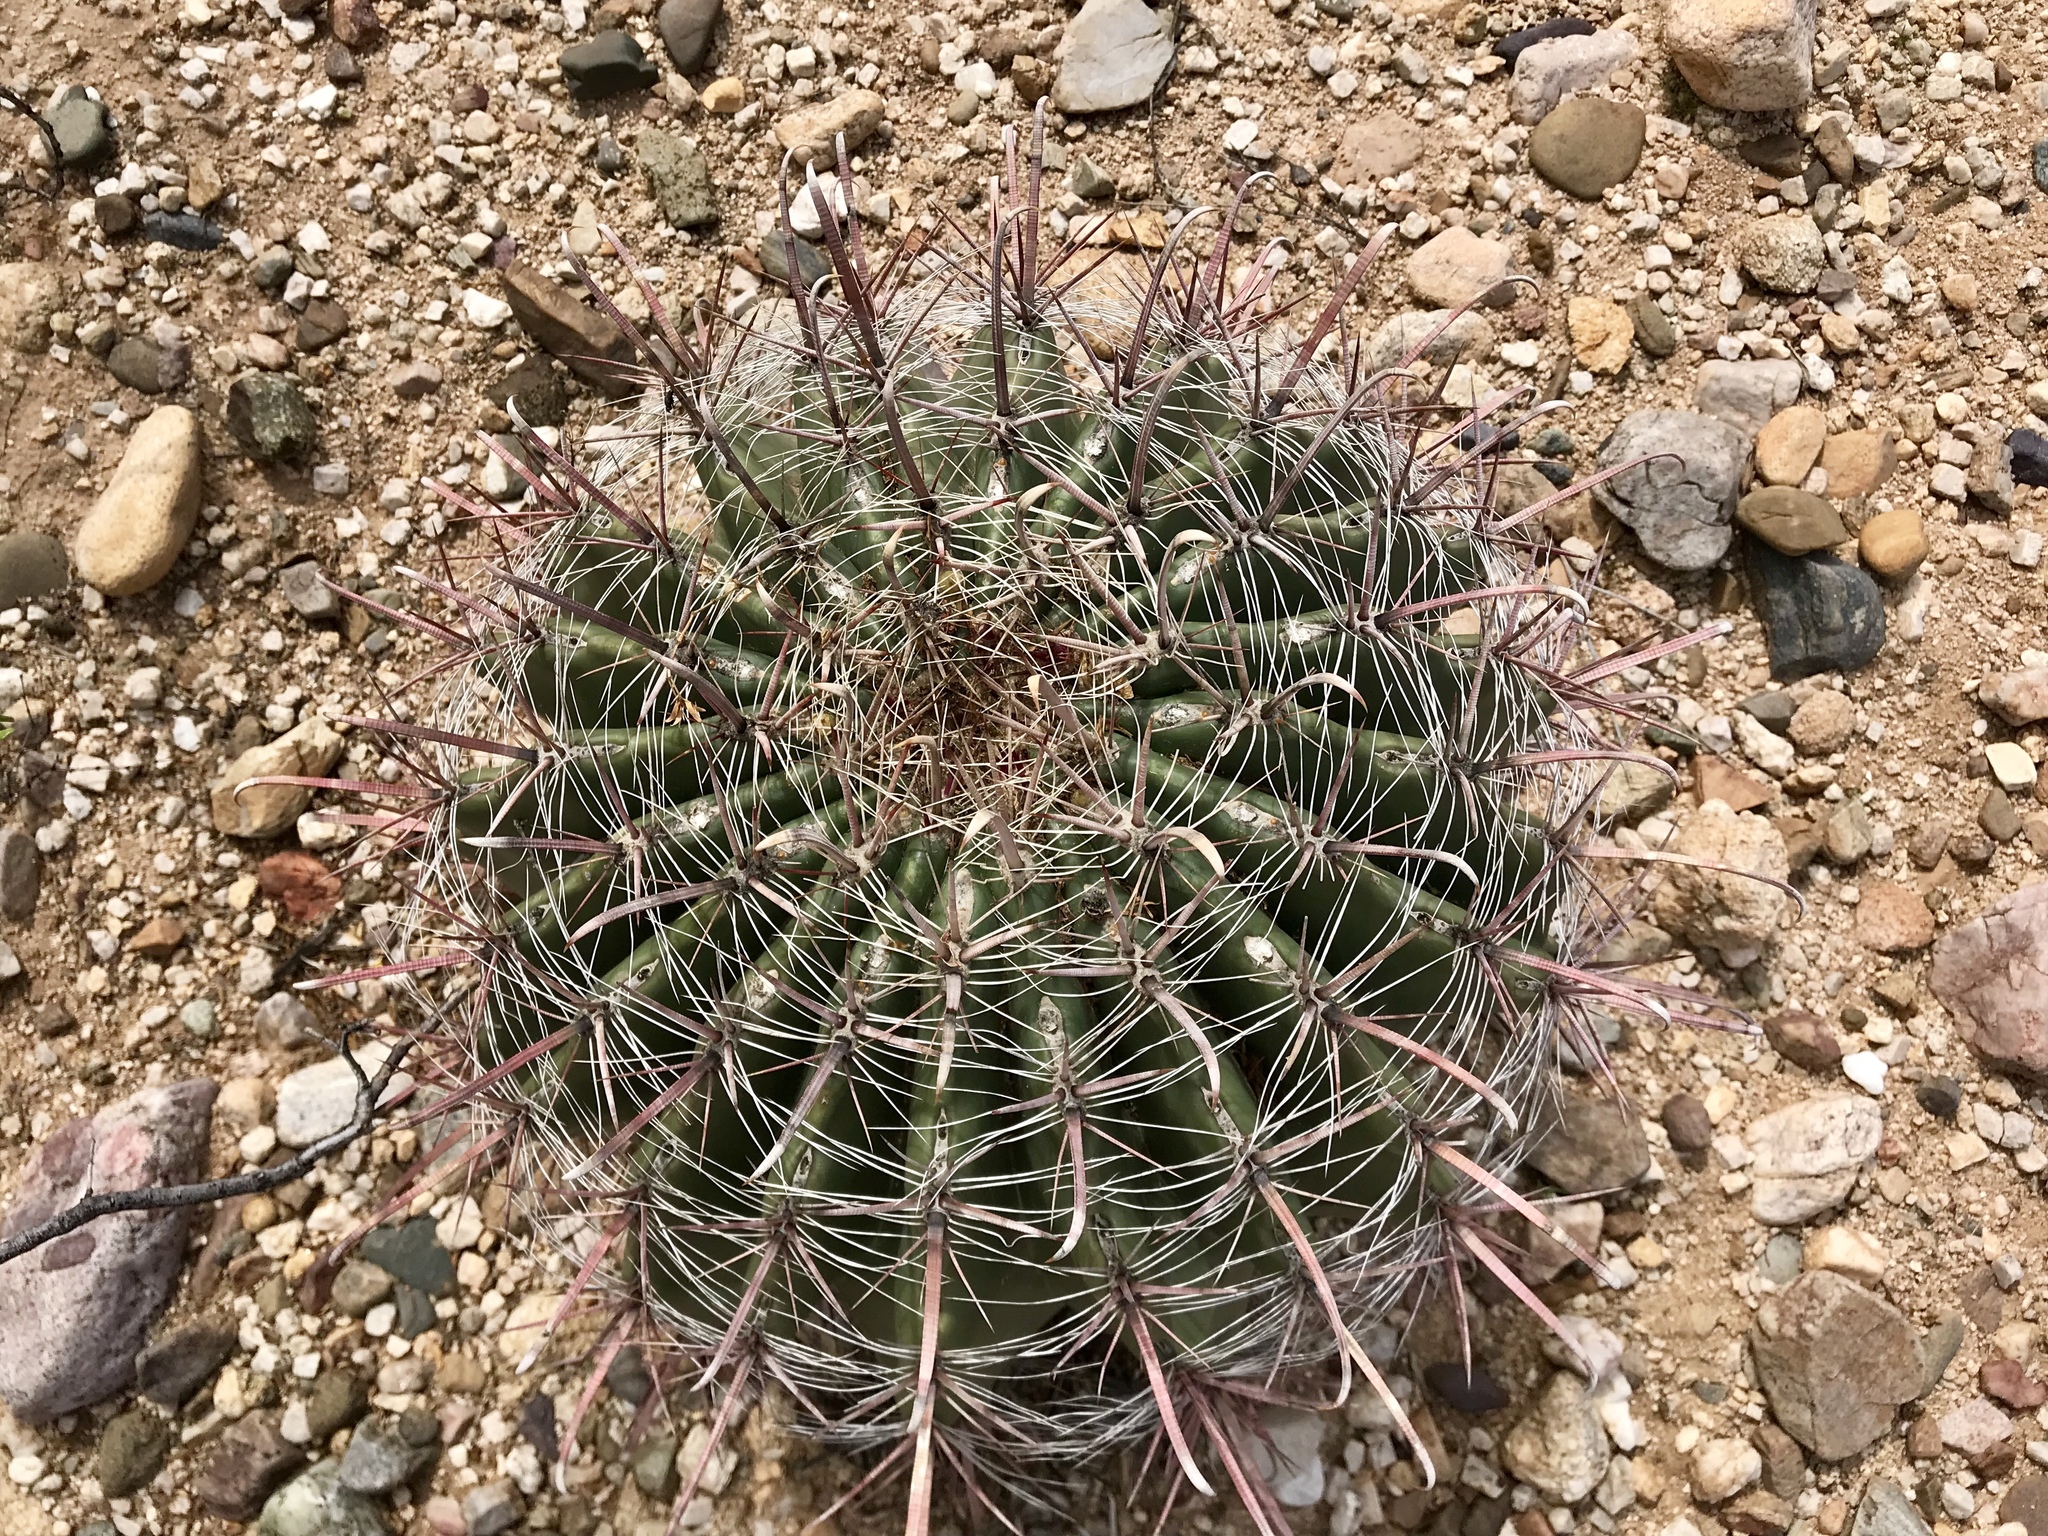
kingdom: Plantae
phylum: Tracheophyta
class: Magnoliopsida
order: Caryophyllales
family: Cactaceae
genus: Ferocactus
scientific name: Ferocactus wislizeni
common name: Candy barrel cactus
